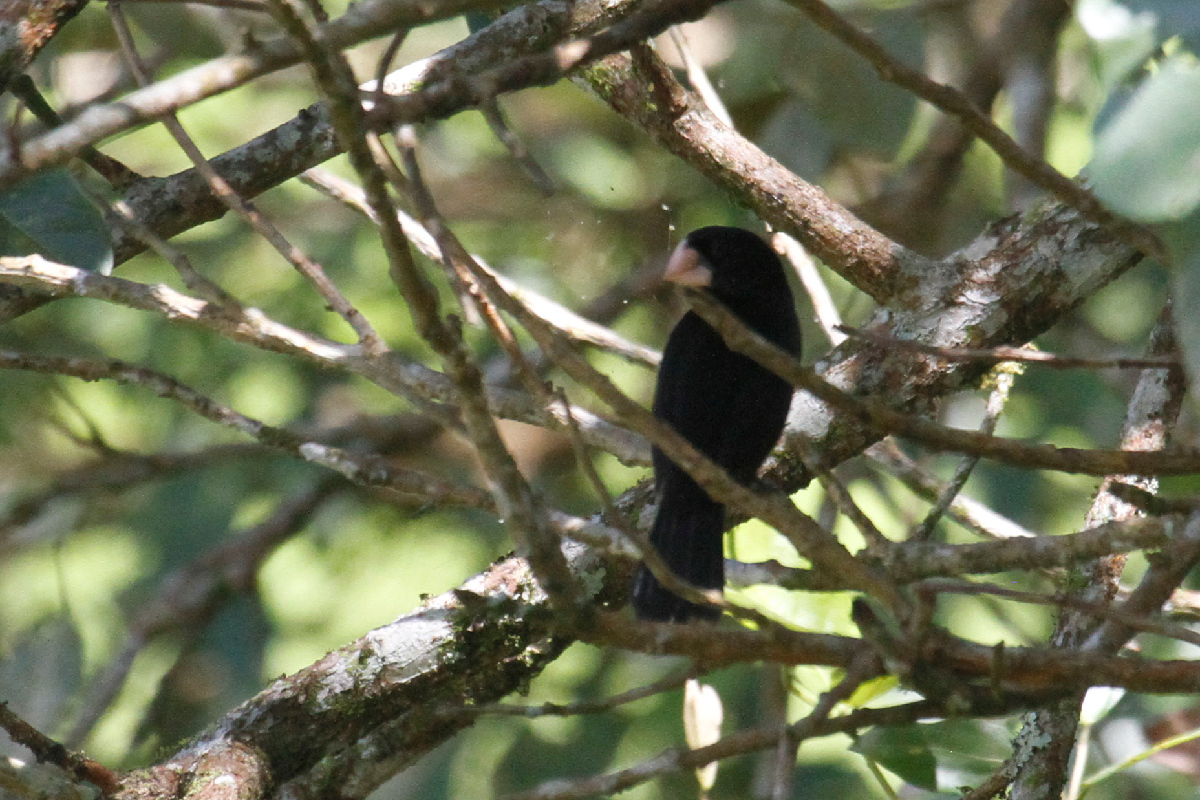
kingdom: Animalia
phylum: Chordata
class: Aves
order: Passeriformes
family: Thraupidae
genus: Sporophila
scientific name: Sporophila nuttingi
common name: Nicaraguan seed-finch
